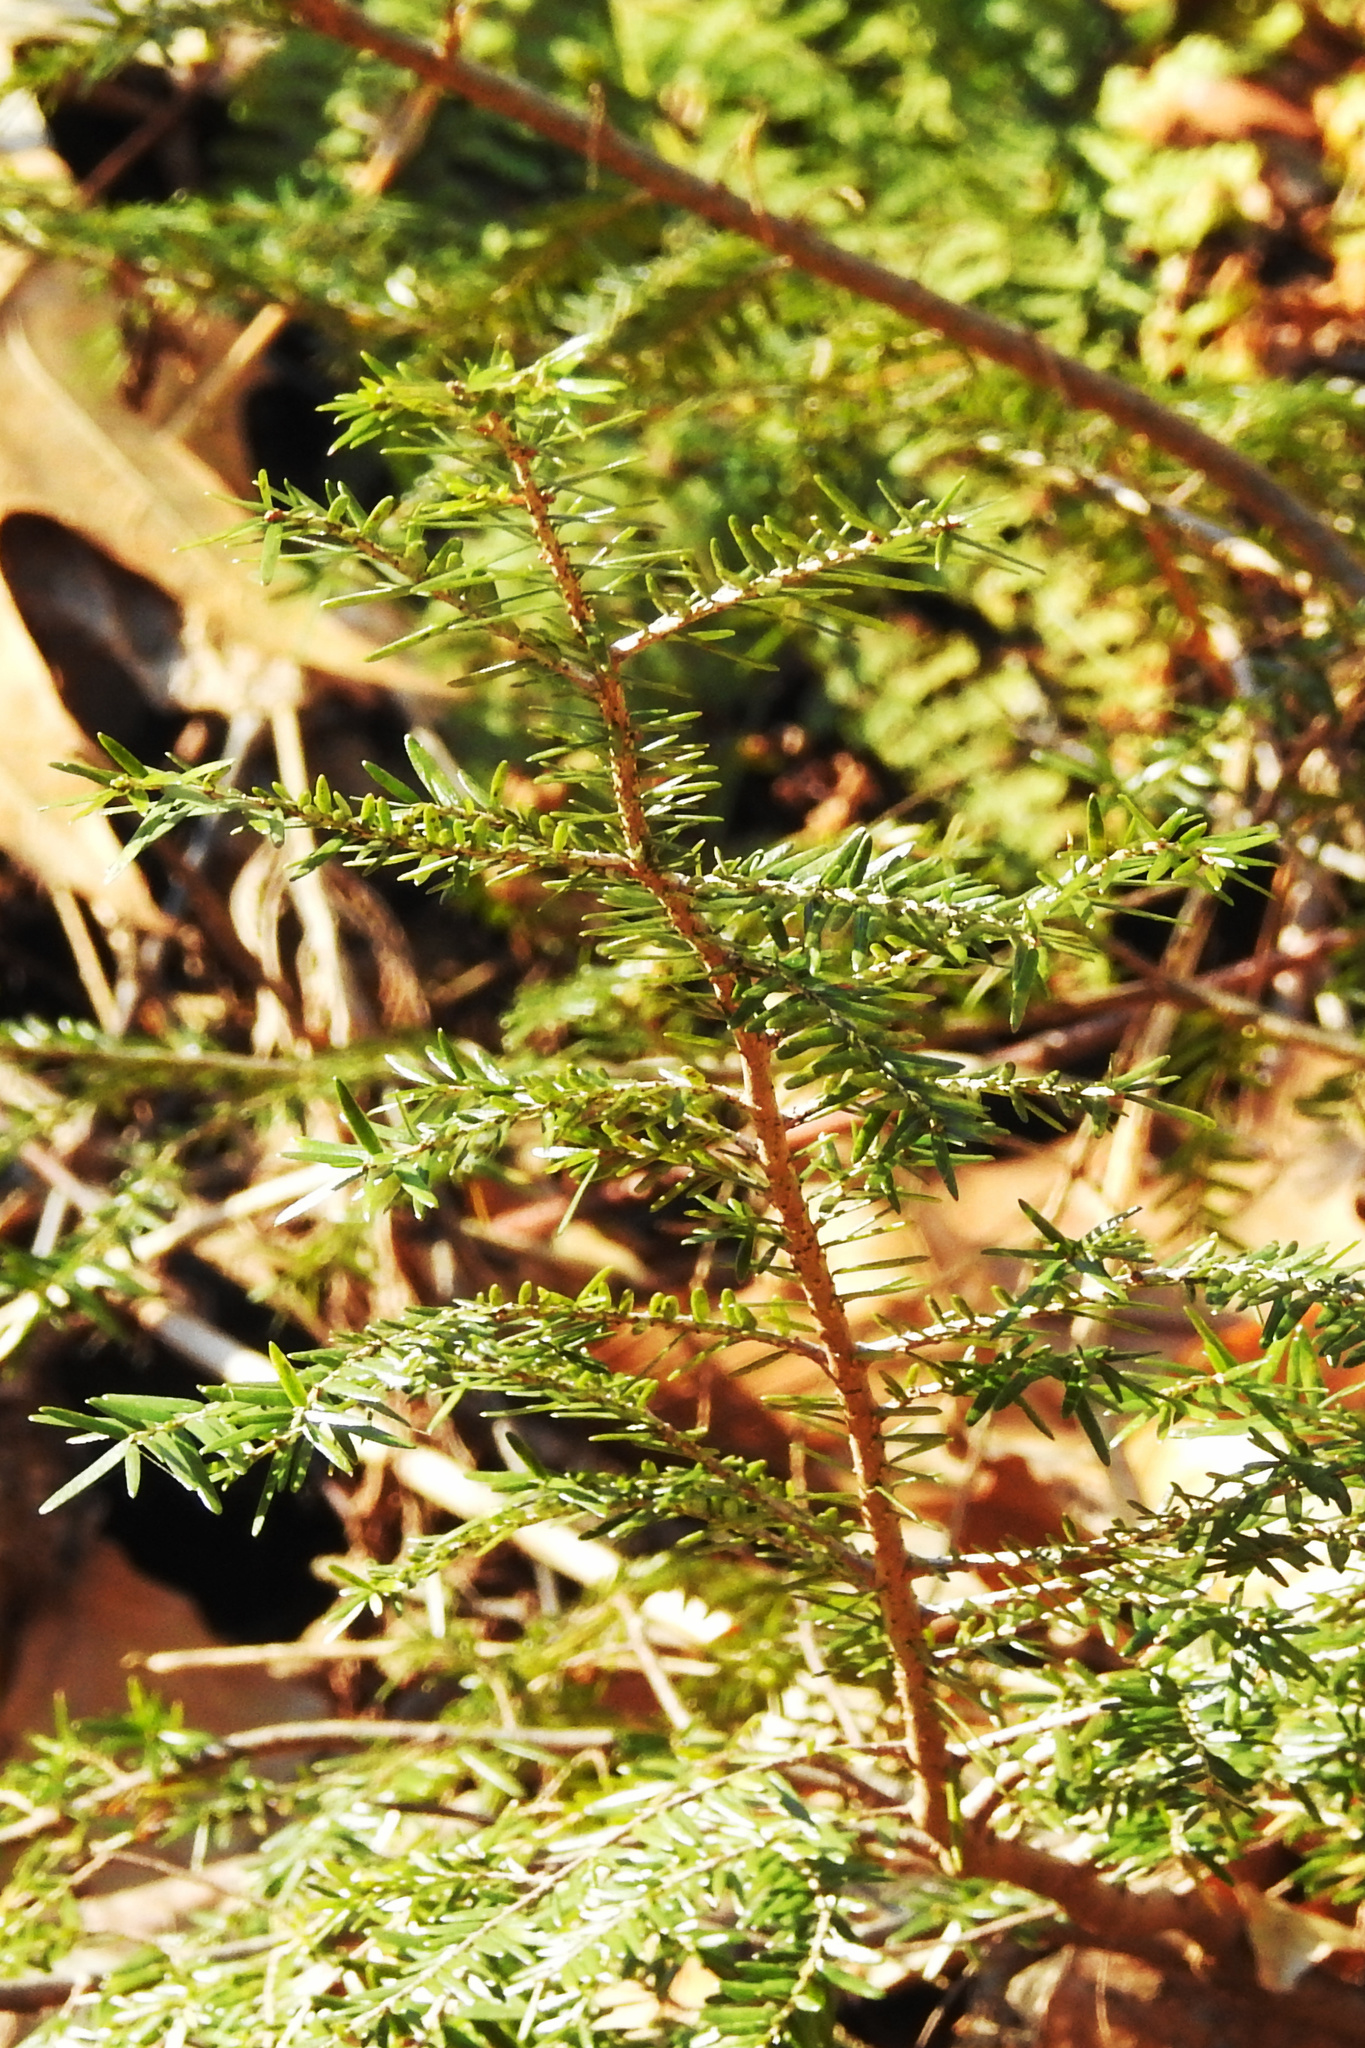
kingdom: Plantae
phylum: Tracheophyta
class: Pinopsida
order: Pinales
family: Pinaceae
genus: Tsuga
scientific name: Tsuga canadensis
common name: Eastern hemlock
